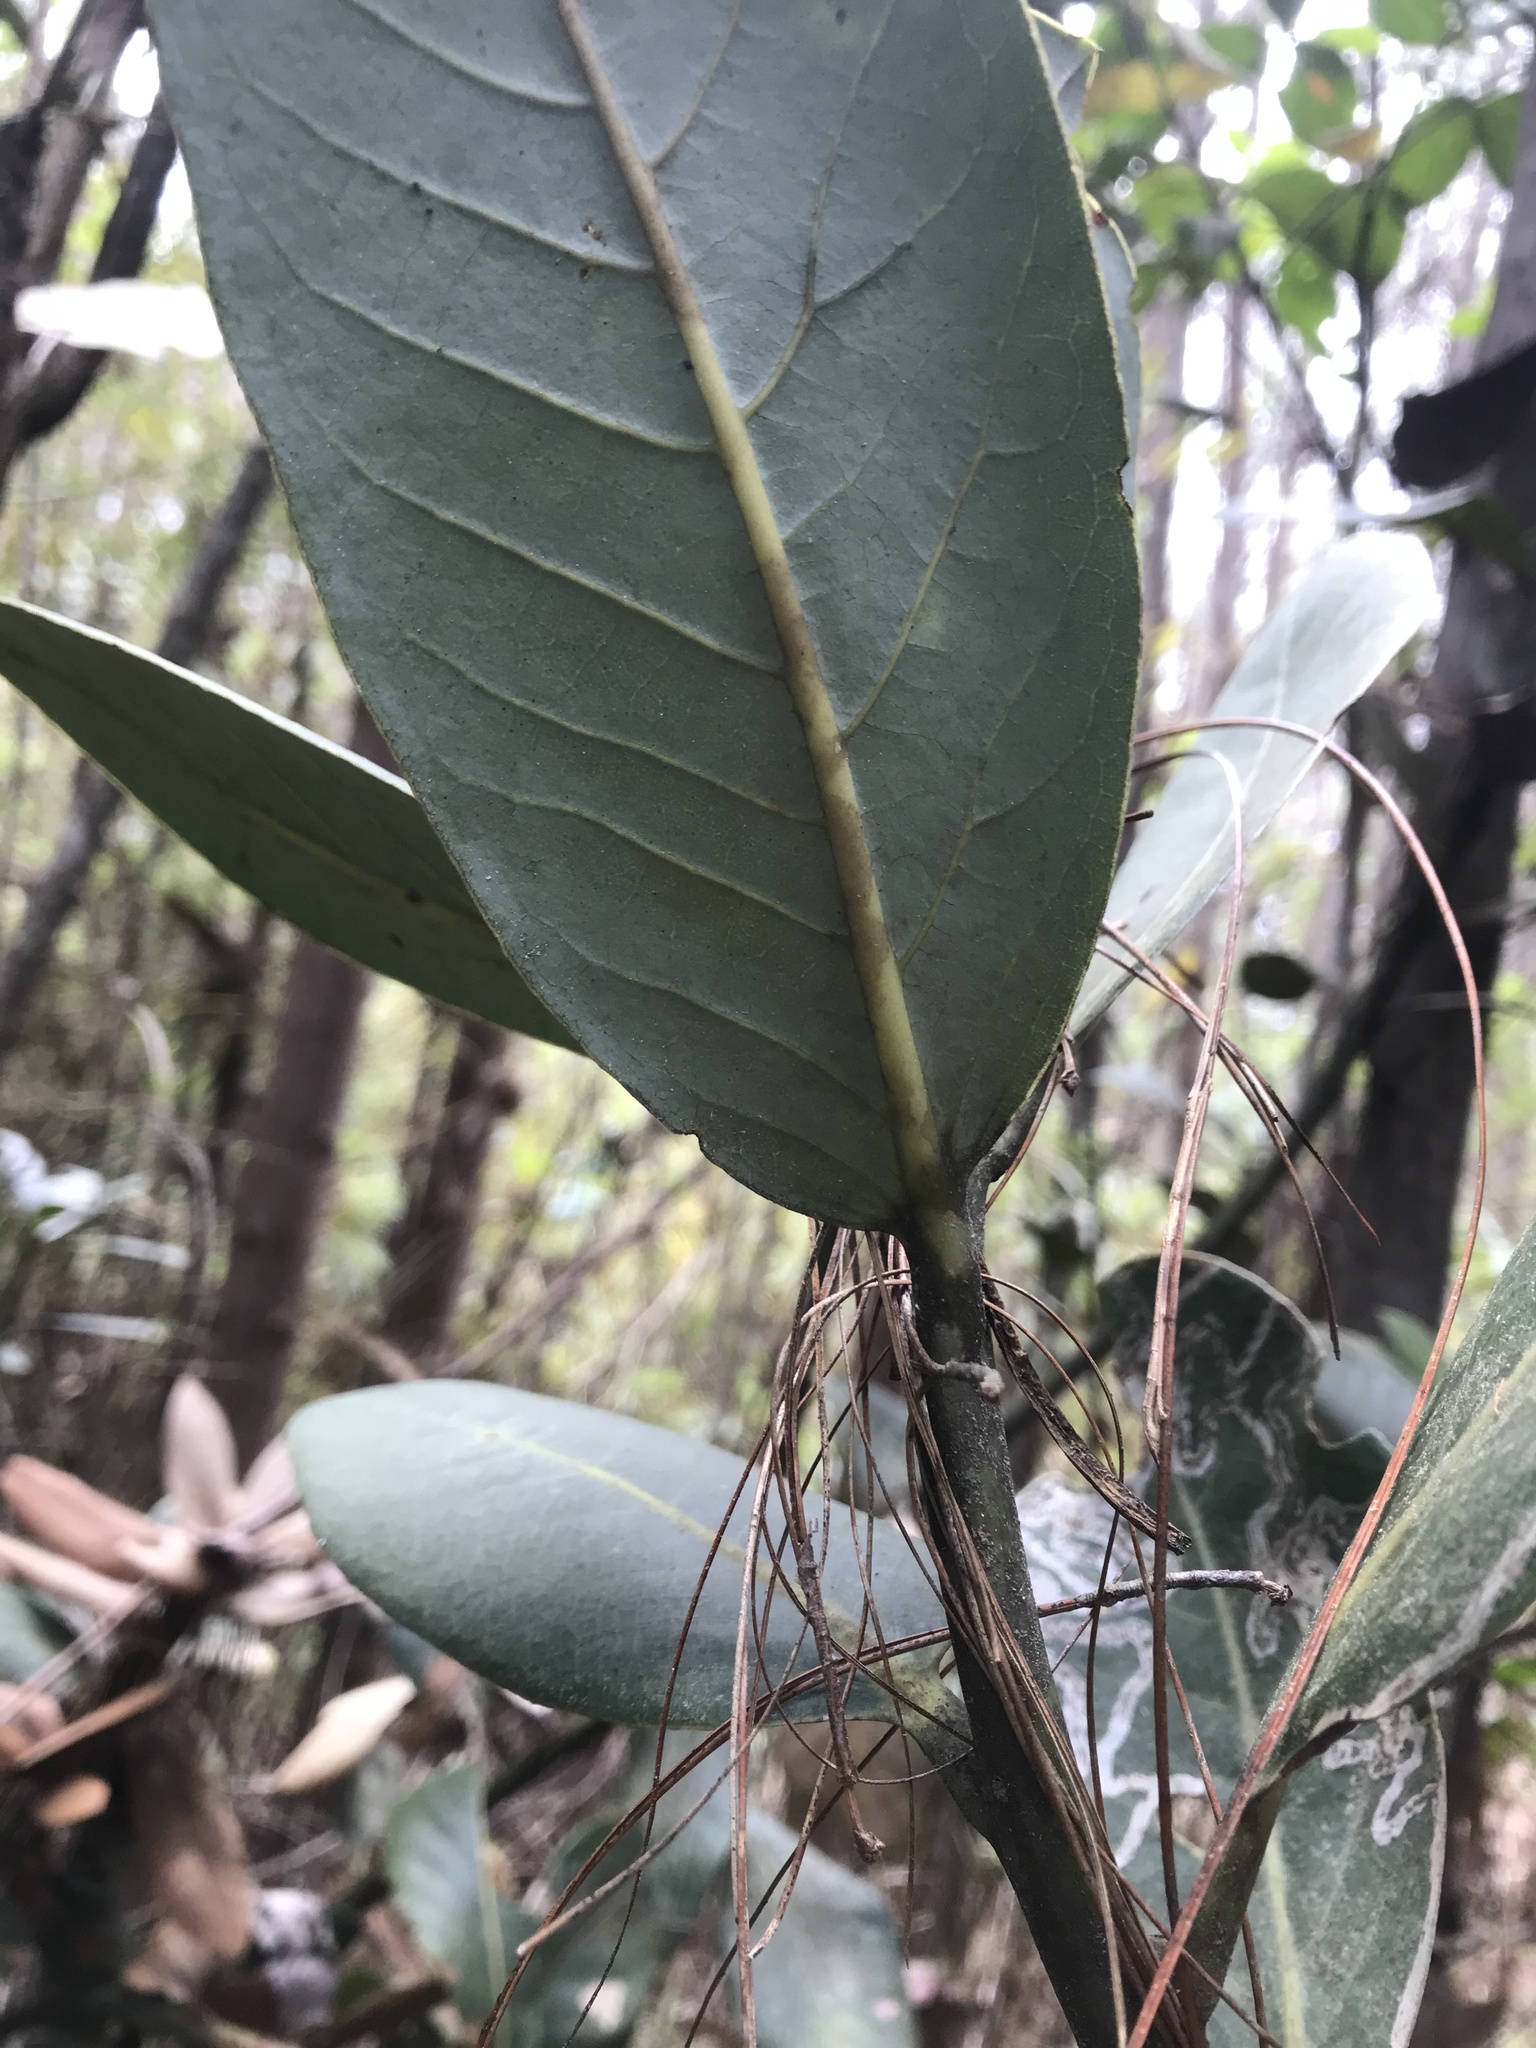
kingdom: Plantae
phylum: Tracheophyta
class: Magnoliopsida
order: Laurales
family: Lauraceae
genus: Persea
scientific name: Persea mutisii
